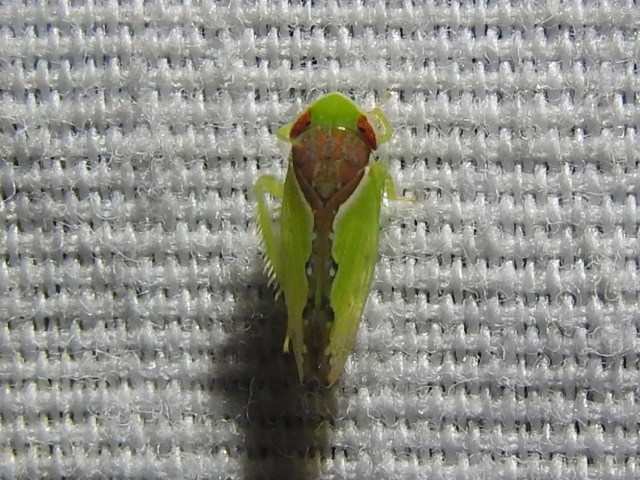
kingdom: Animalia
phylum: Arthropoda
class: Insecta
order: Hemiptera
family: Cicadellidae
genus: Omansobara ing
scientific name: Omansobara ing Omansobara palliolata
